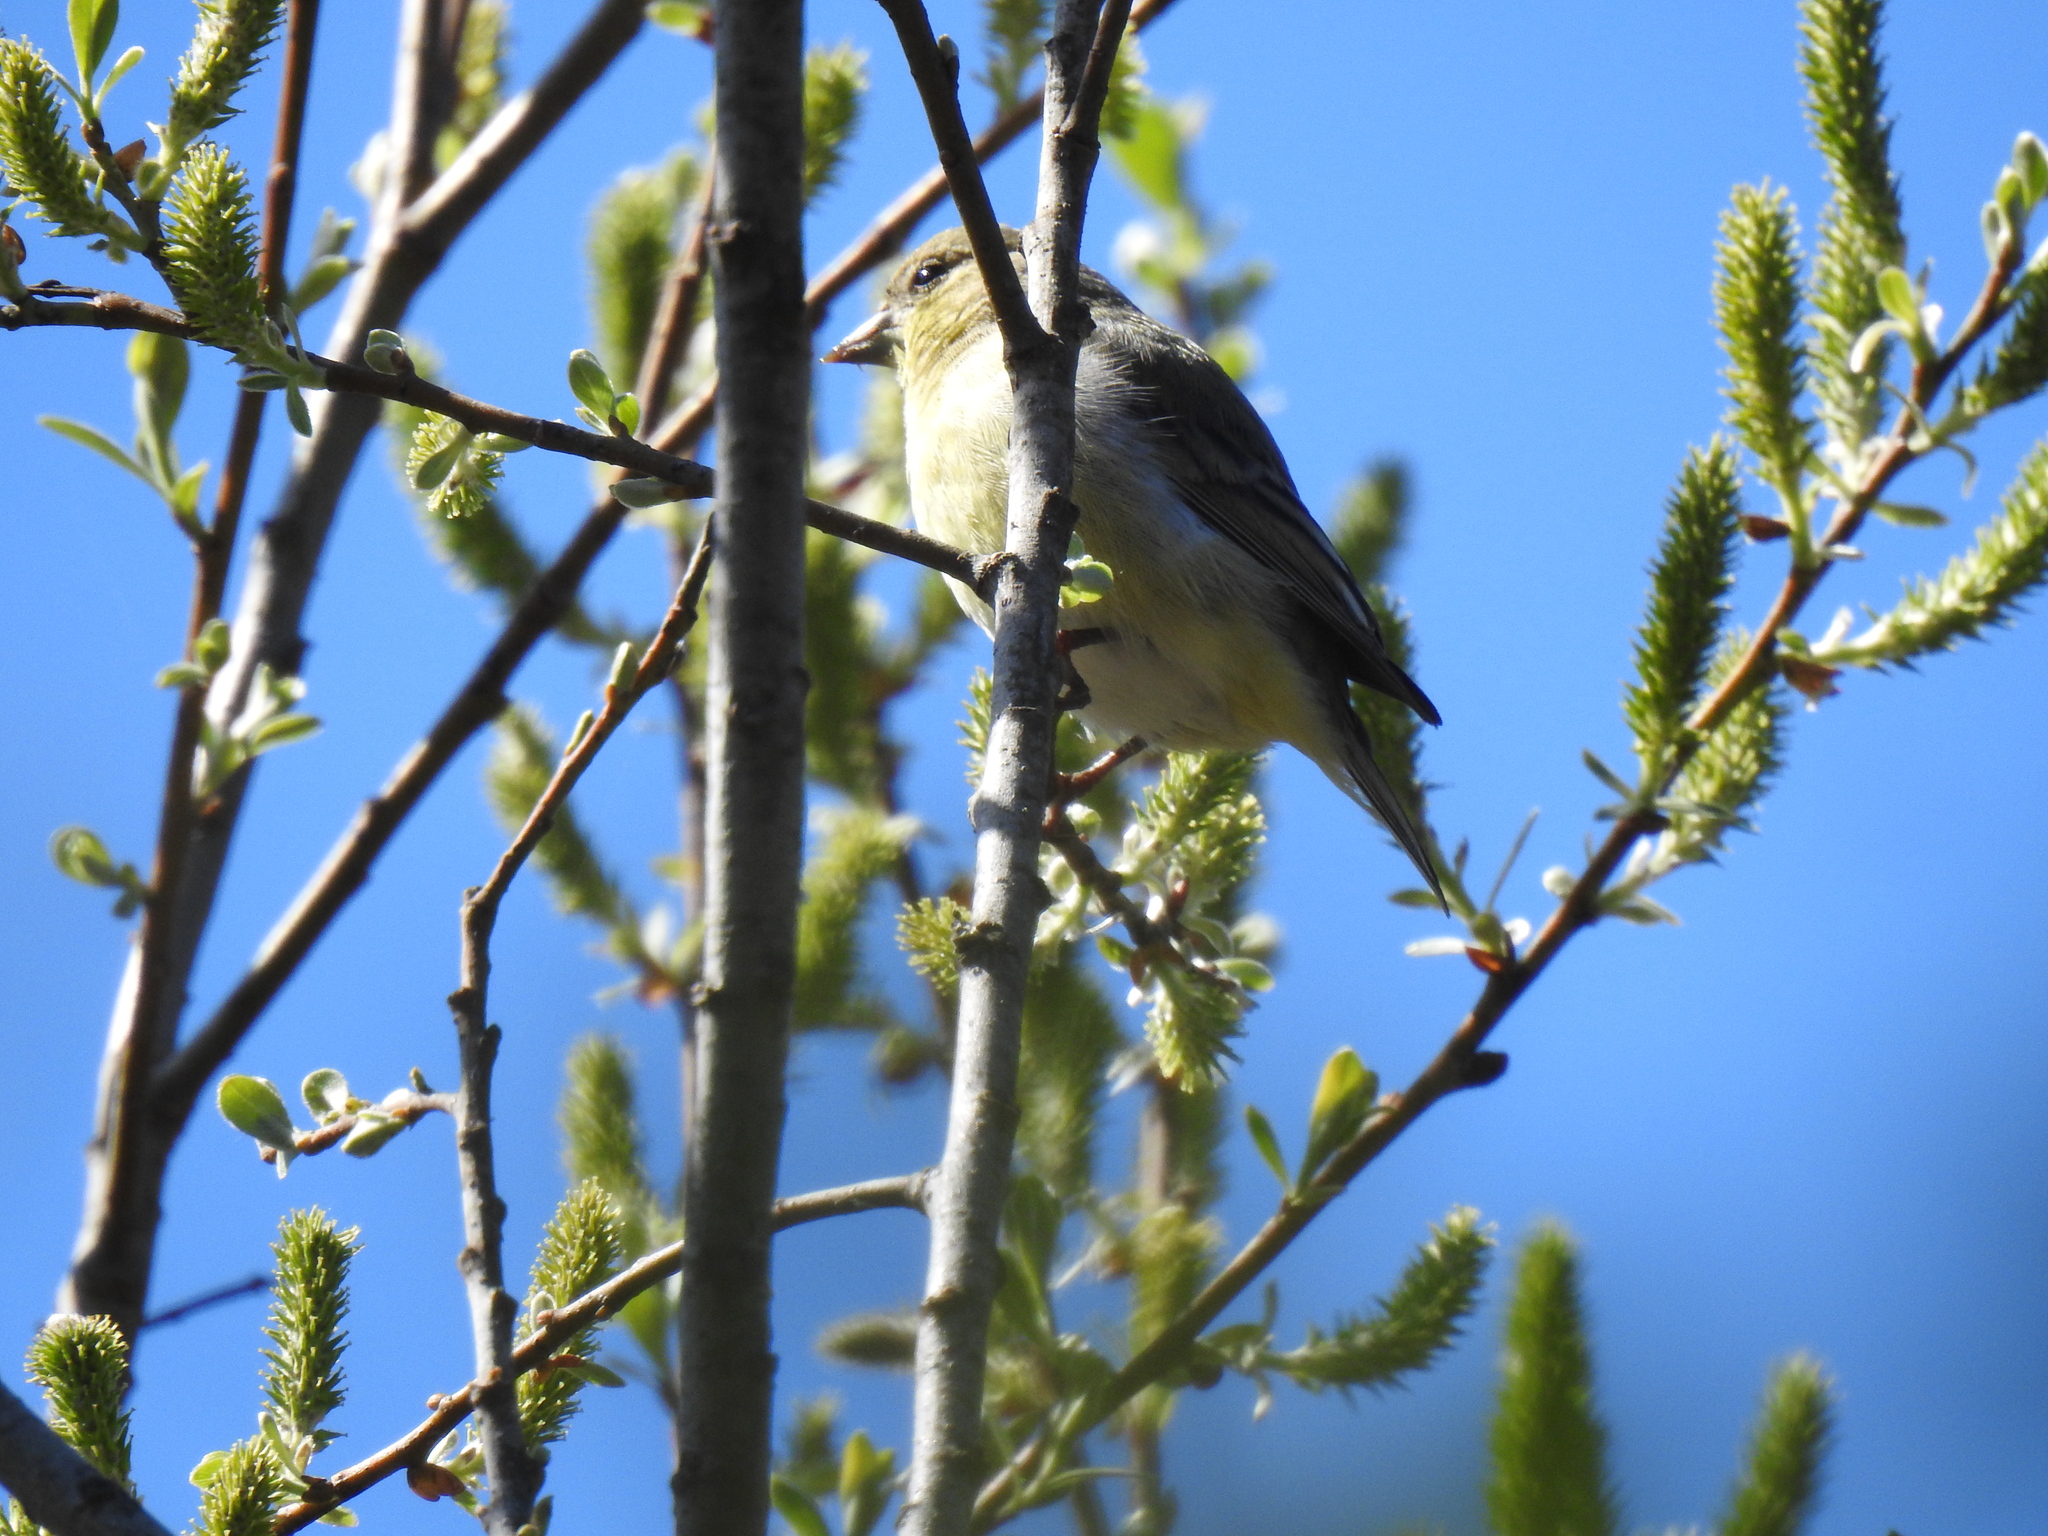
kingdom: Animalia
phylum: Chordata
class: Aves
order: Passeriformes
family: Fringillidae
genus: Spinus
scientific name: Spinus psaltria
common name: Lesser goldfinch
